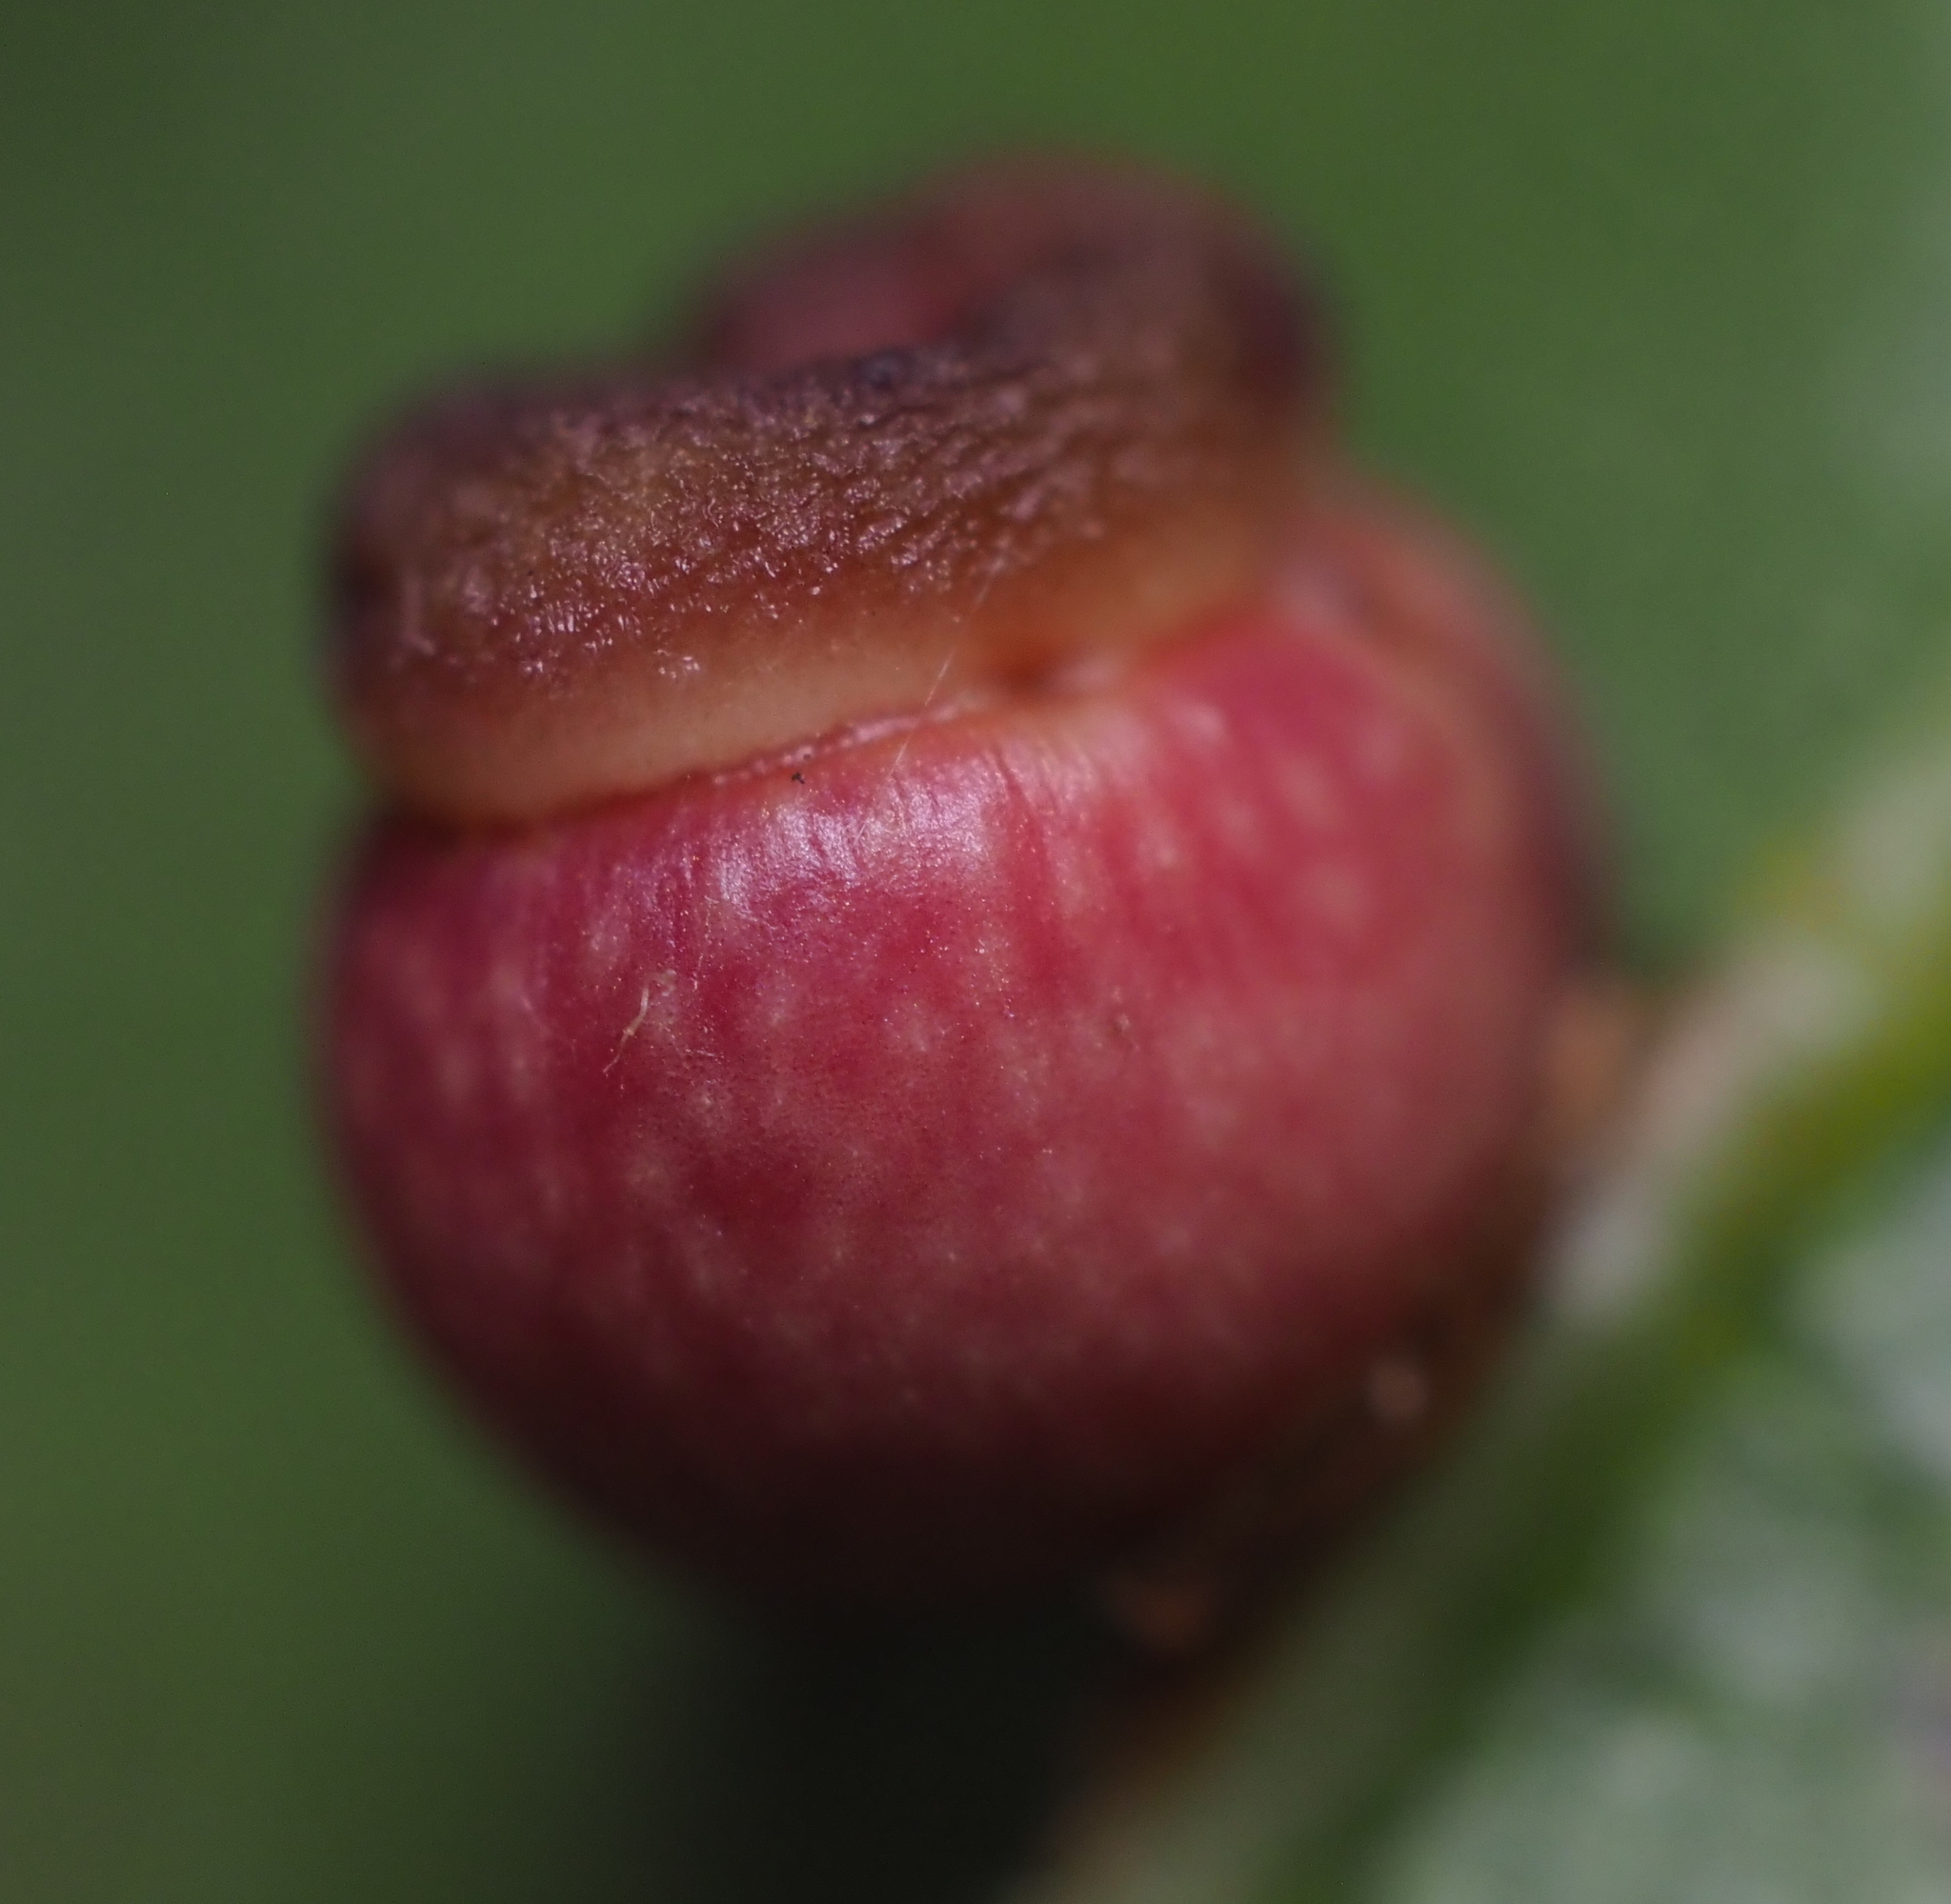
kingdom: Animalia
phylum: Arthropoda
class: Insecta
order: Hymenoptera
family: Cynipidae
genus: Kokkocynips
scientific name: Kokkocynips rileyi
